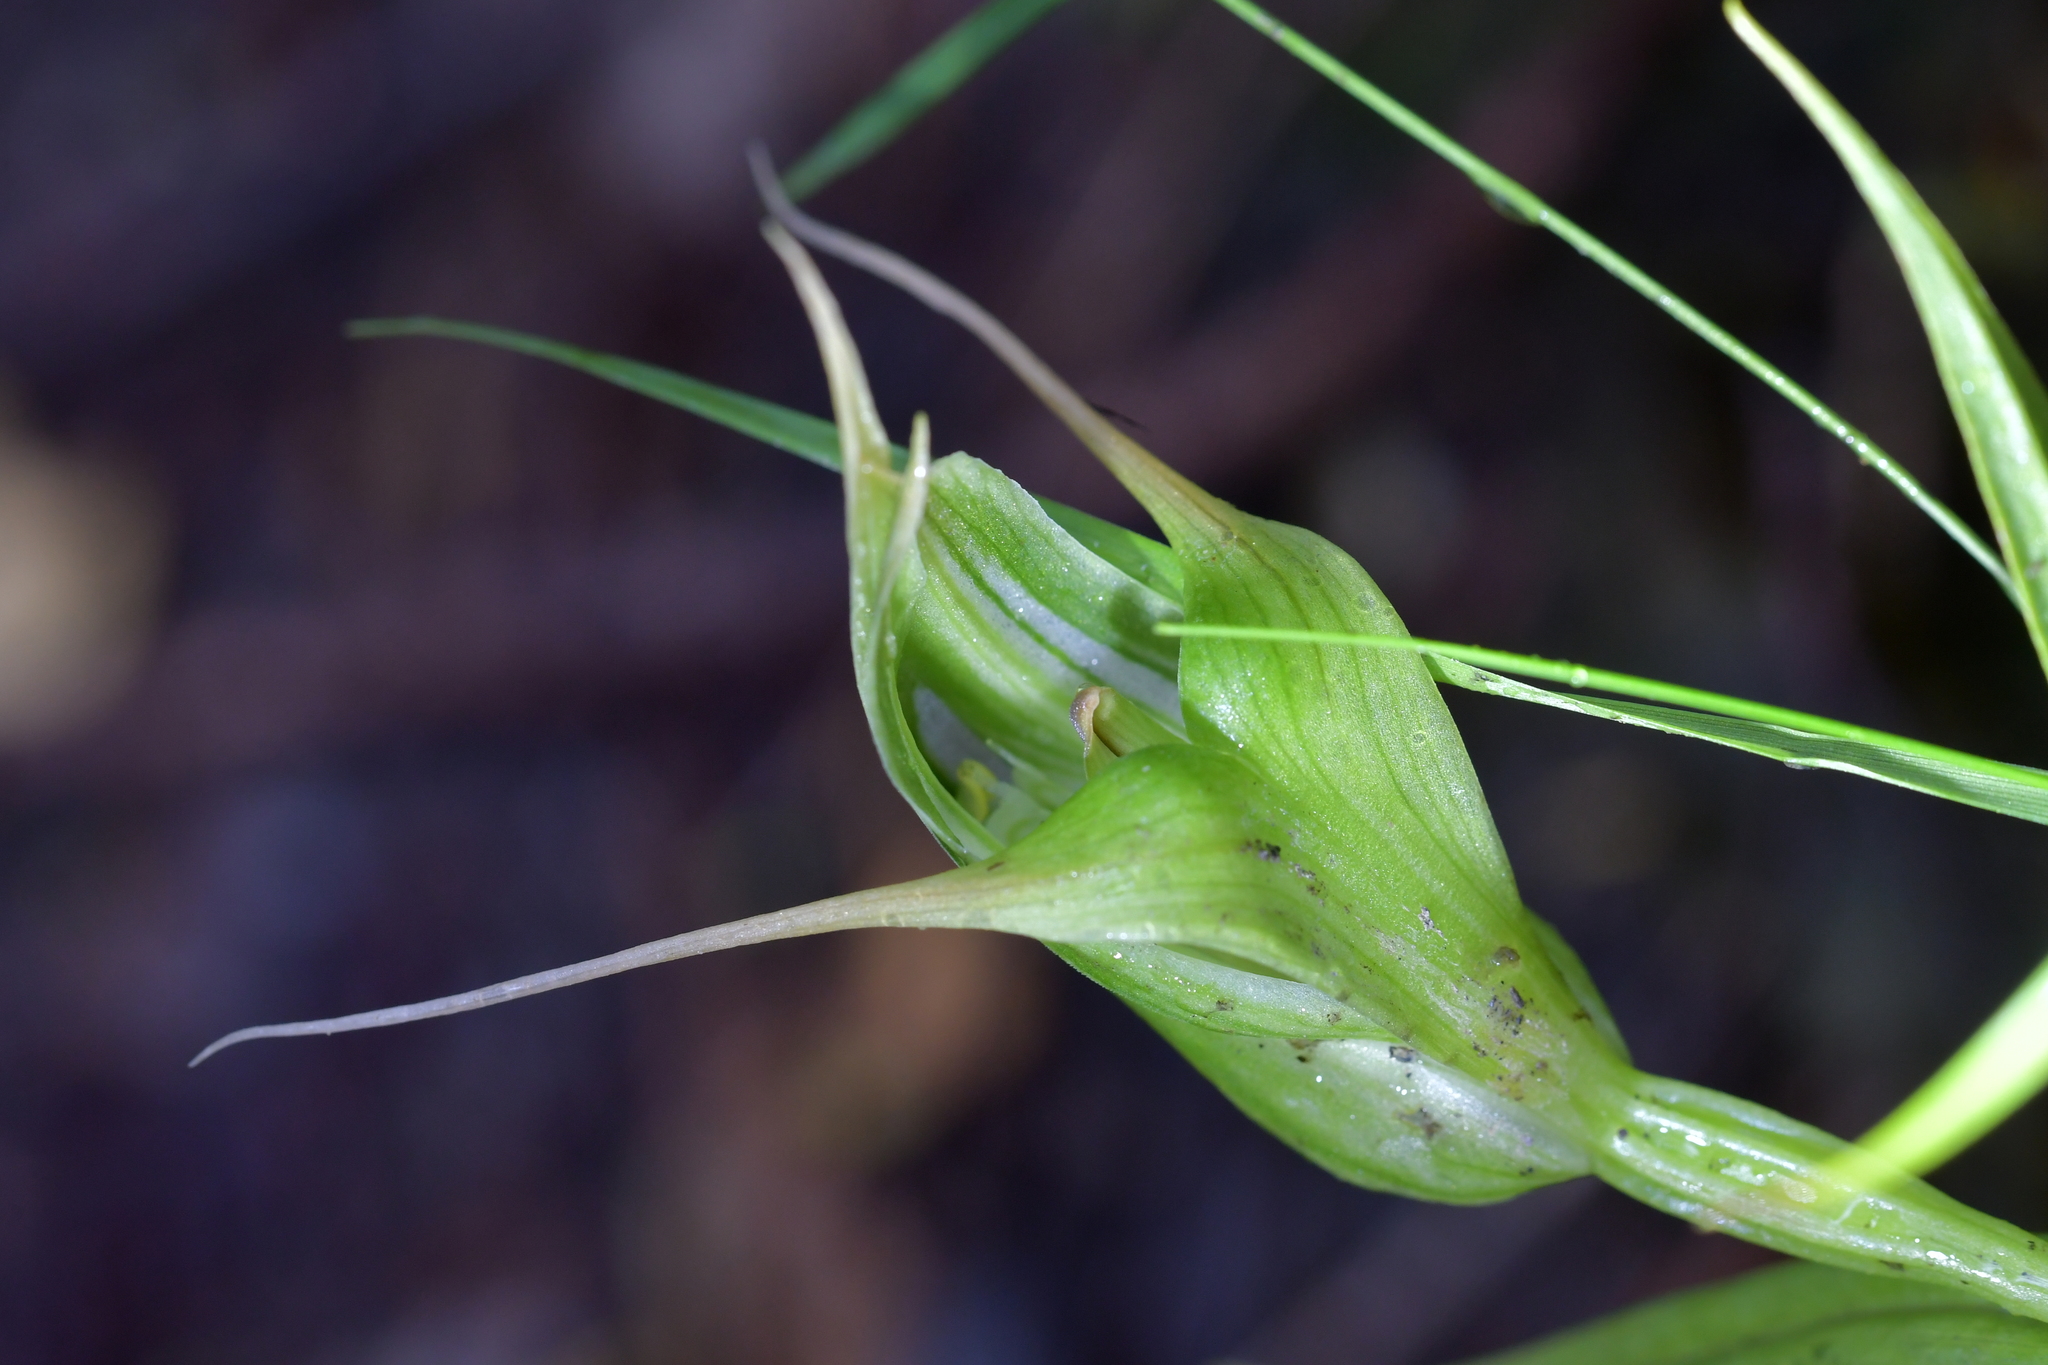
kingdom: Plantae
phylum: Tracheophyta
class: Liliopsida
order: Asparagales
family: Orchidaceae
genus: Pterostylis
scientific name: Pterostylis banksii
